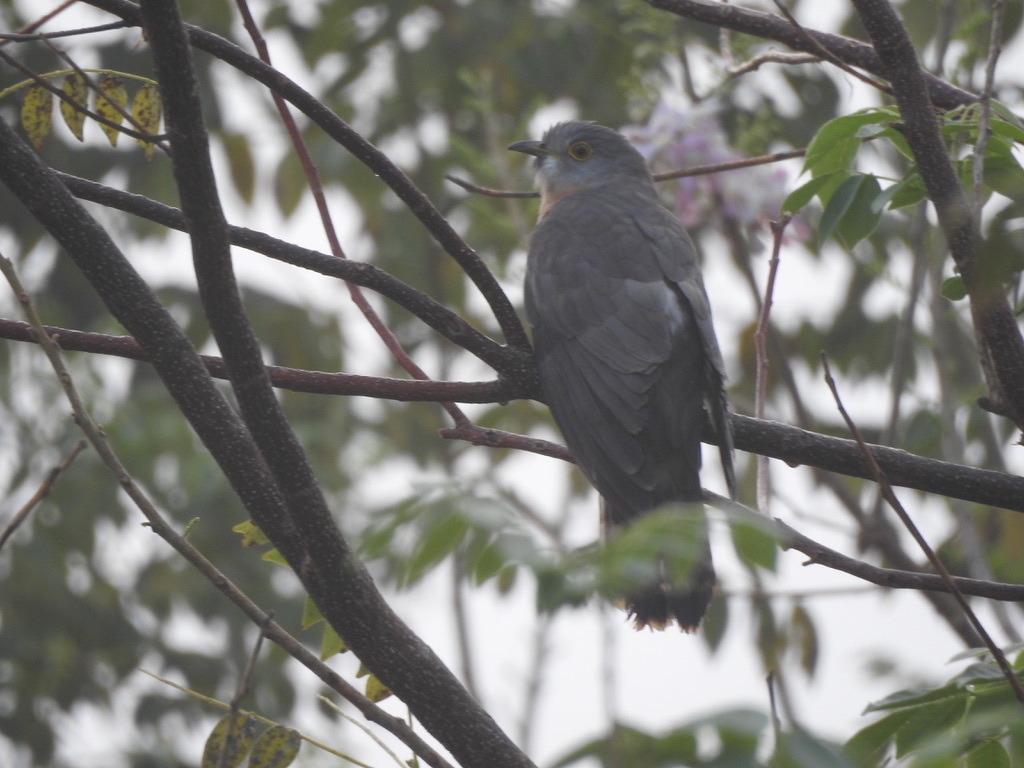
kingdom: Animalia
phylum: Chordata
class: Aves
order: Cuculiformes
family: Cuculidae
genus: Cuculus
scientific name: Cuculus varius
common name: Common hawk cuckoo
